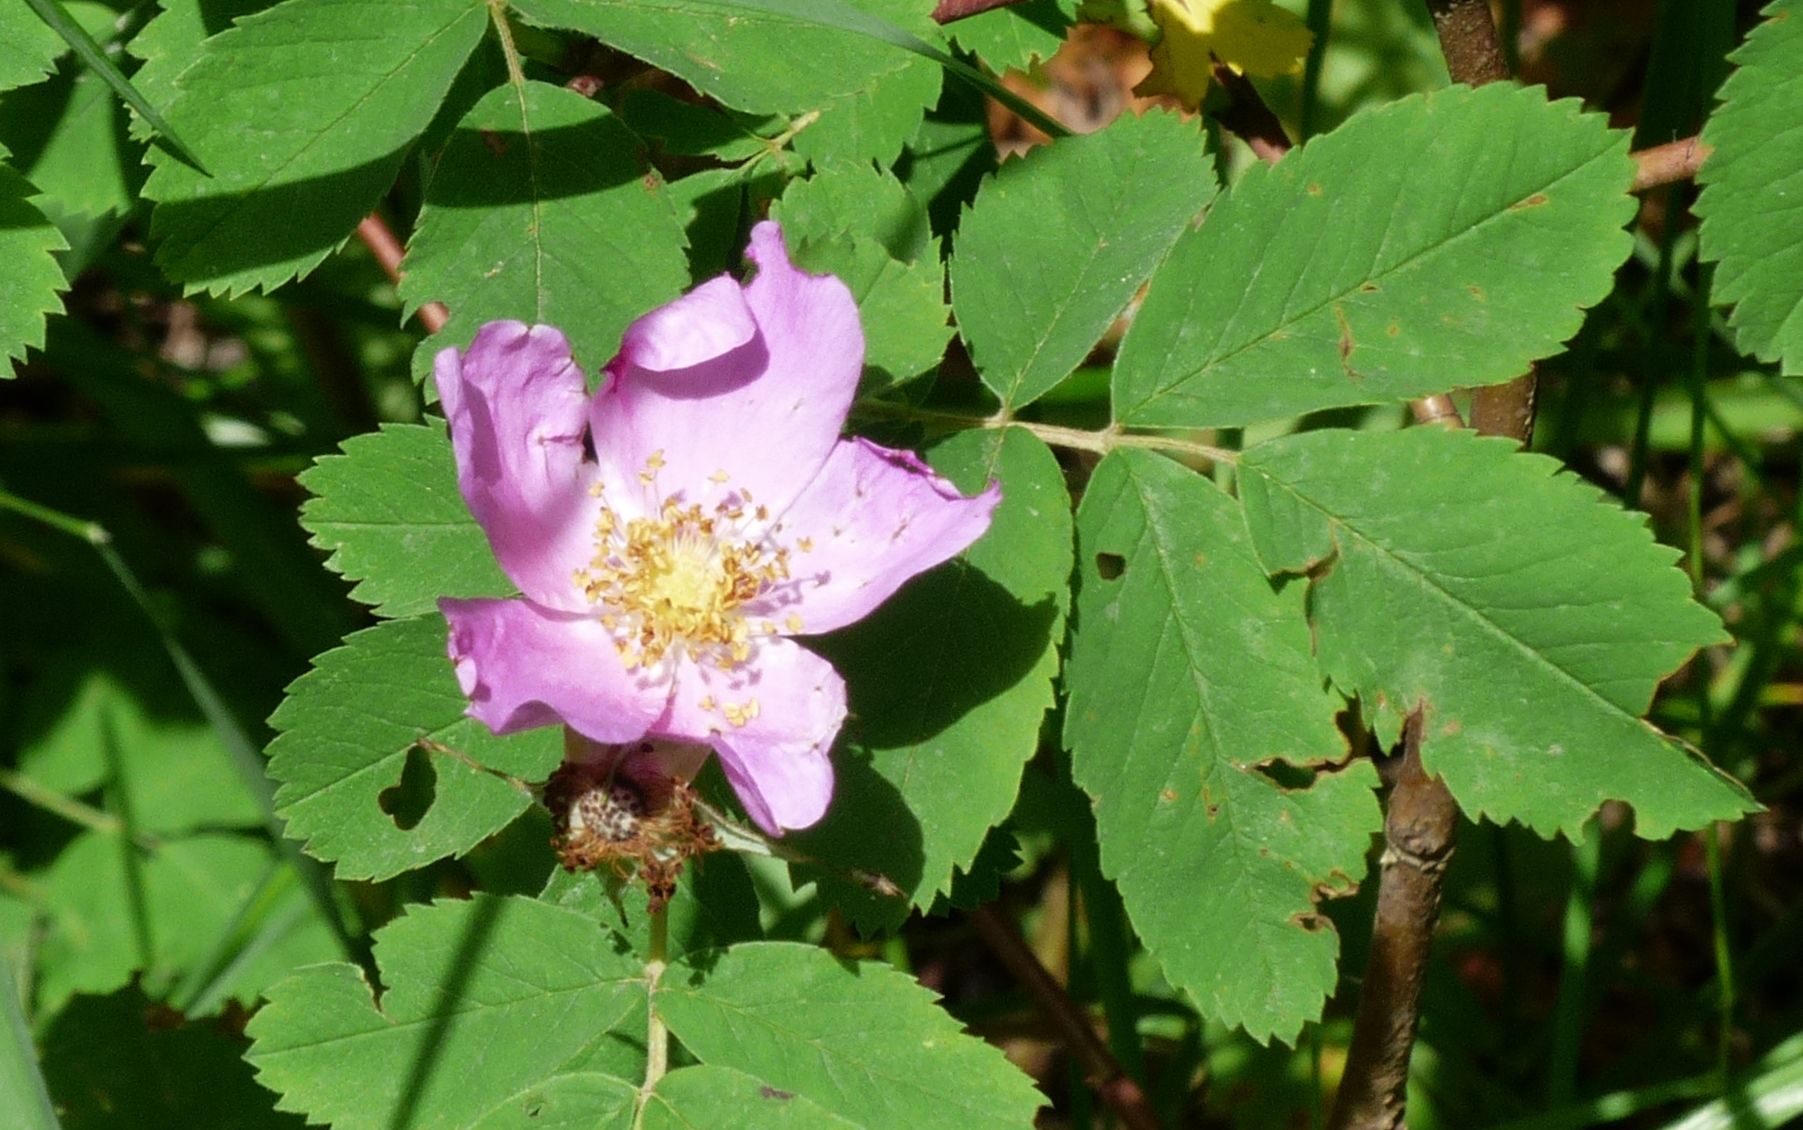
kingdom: Plantae
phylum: Tracheophyta
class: Magnoliopsida
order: Rosales
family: Rosaceae
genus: Rosa
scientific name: Rosa acicularis
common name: Prickly rose
